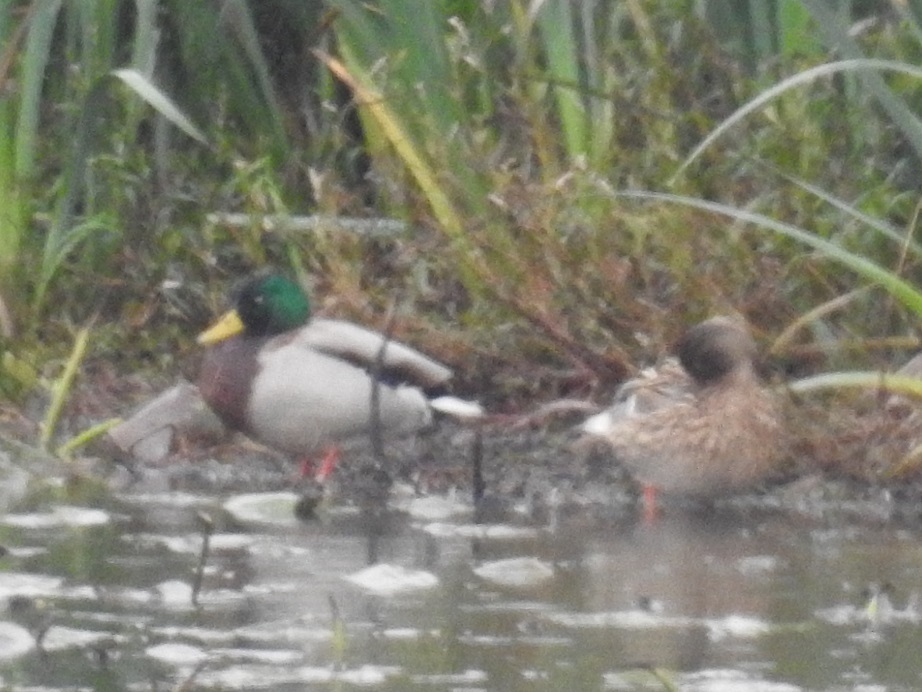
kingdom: Animalia
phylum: Chordata
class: Aves
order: Anseriformes
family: Anatidae
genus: Anas
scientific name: Anas platyrhynchos
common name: Mallard
